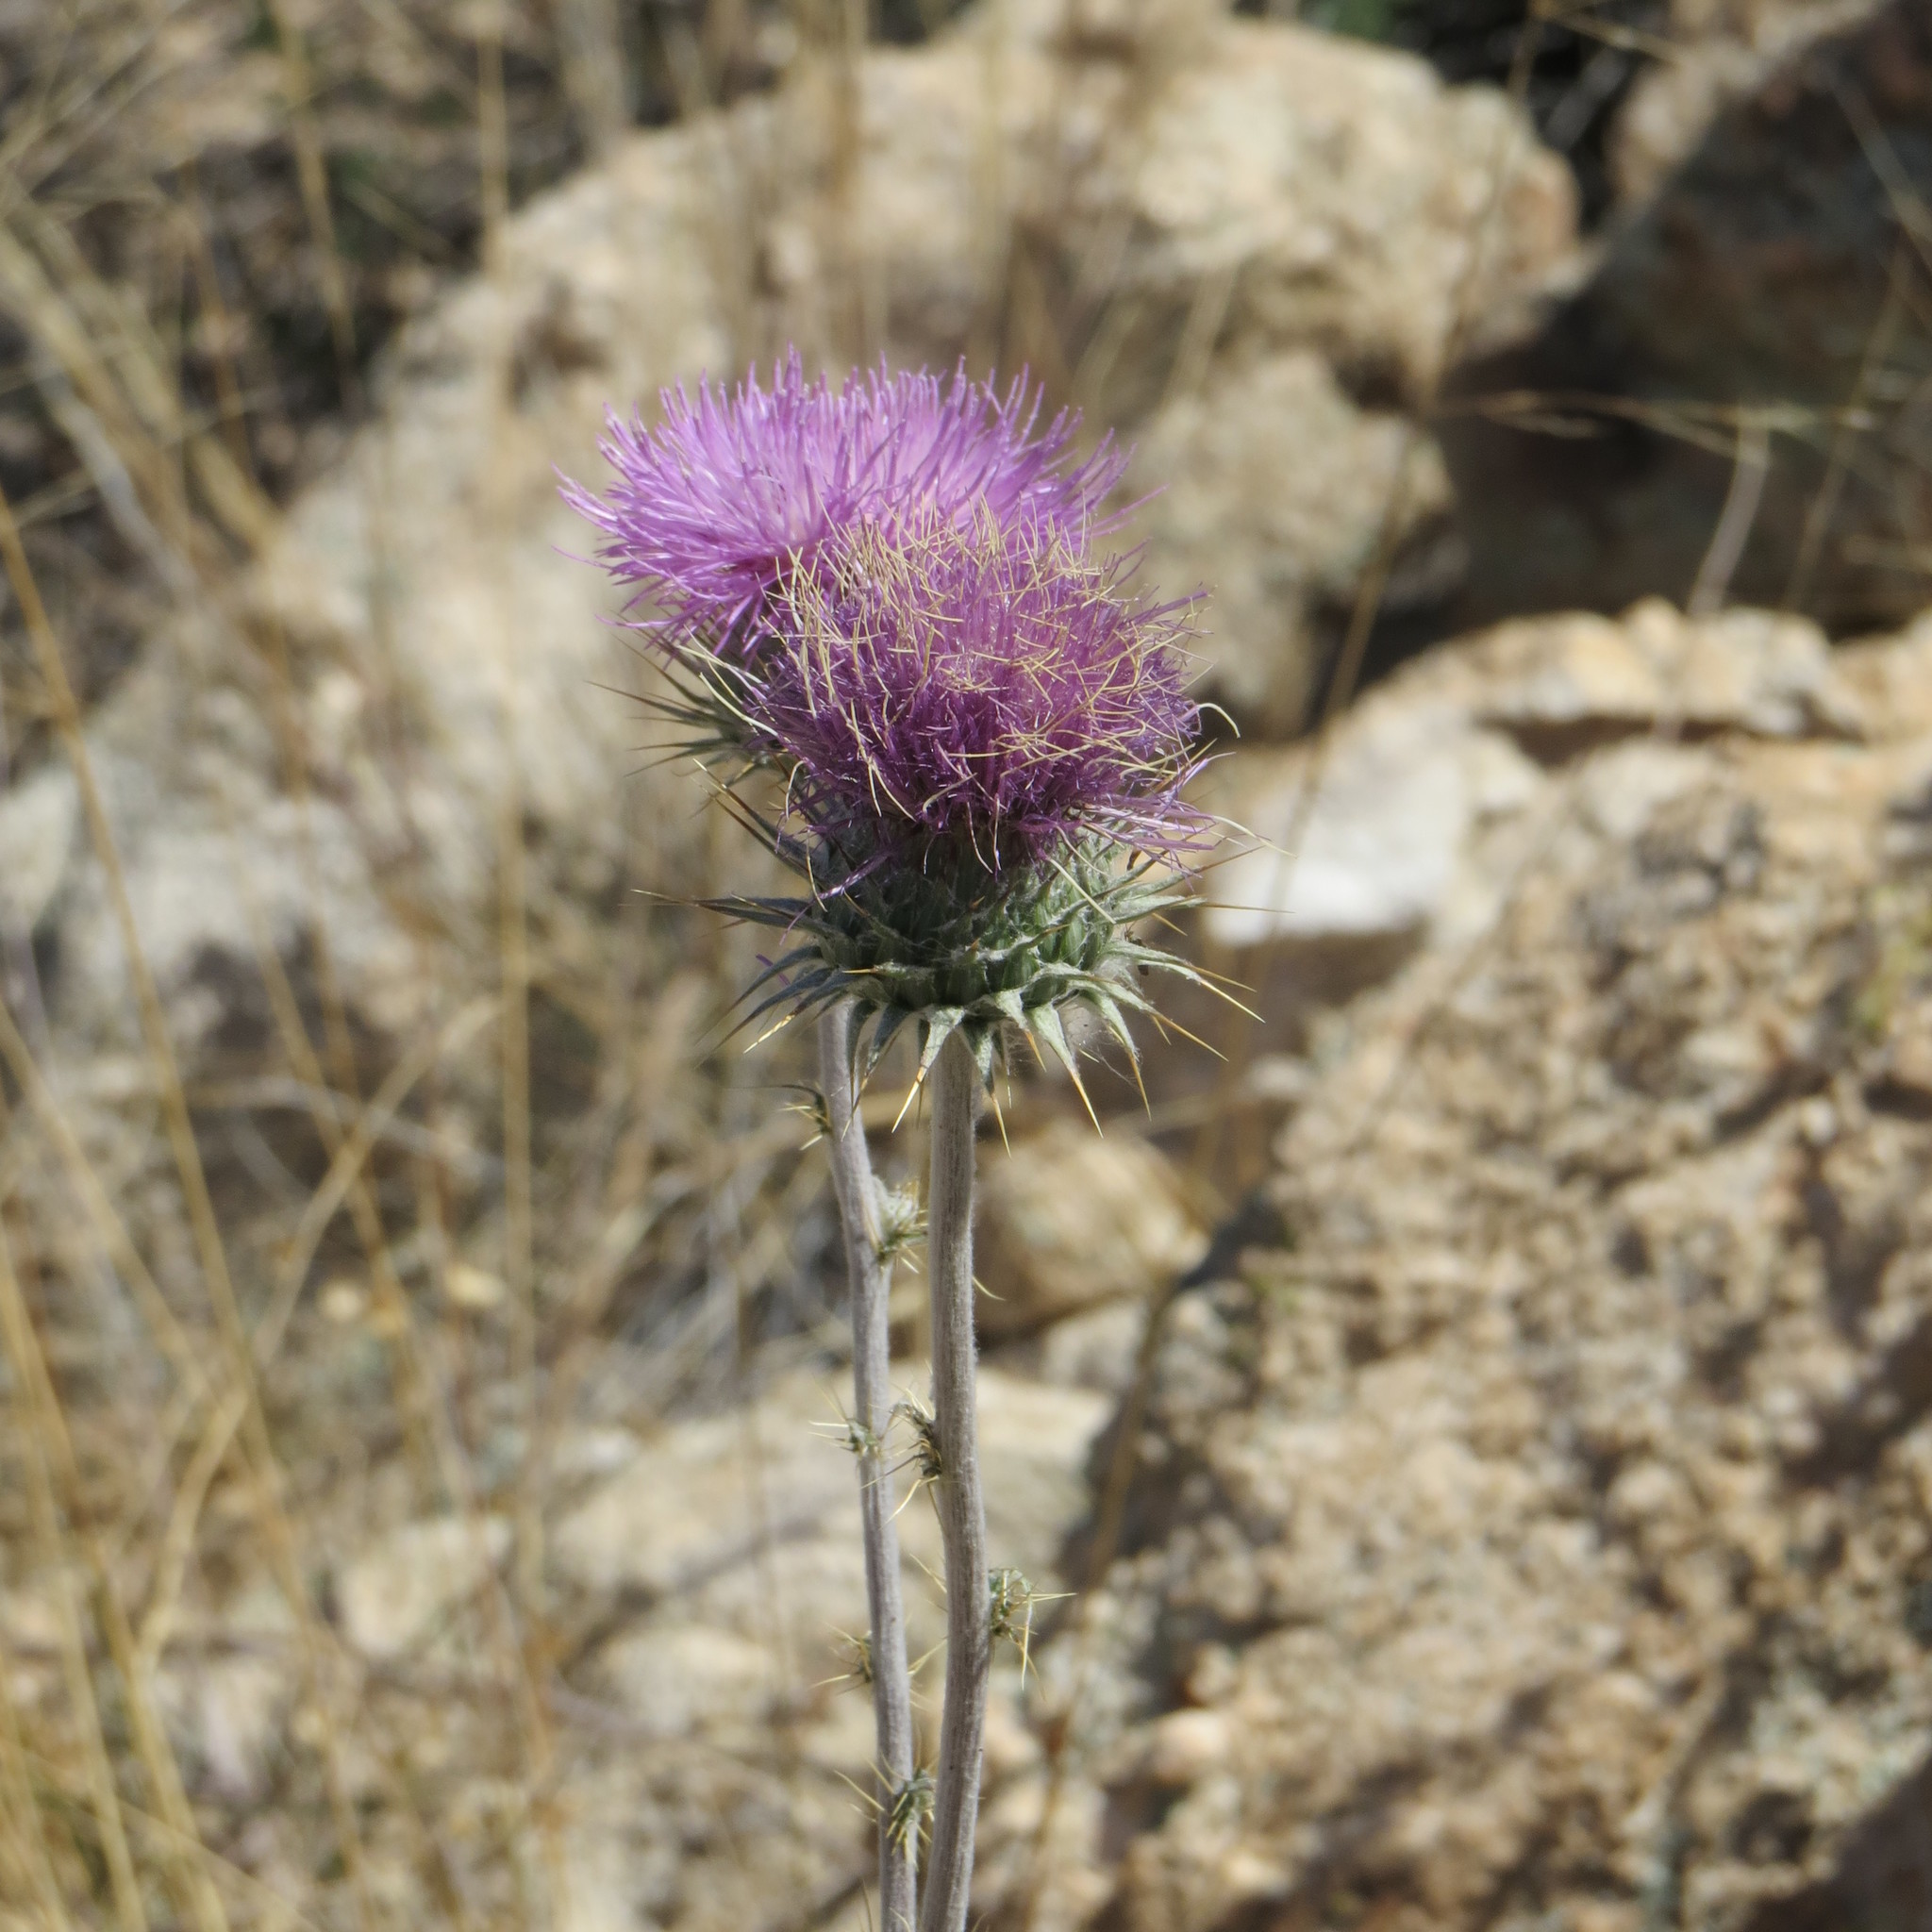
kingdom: Plantae
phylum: Tracheophyta
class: Magnoliopsida
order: Asterales
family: Asteraceae
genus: Cirsium
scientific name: Cirsium neomexicanum
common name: New mexico thistle
